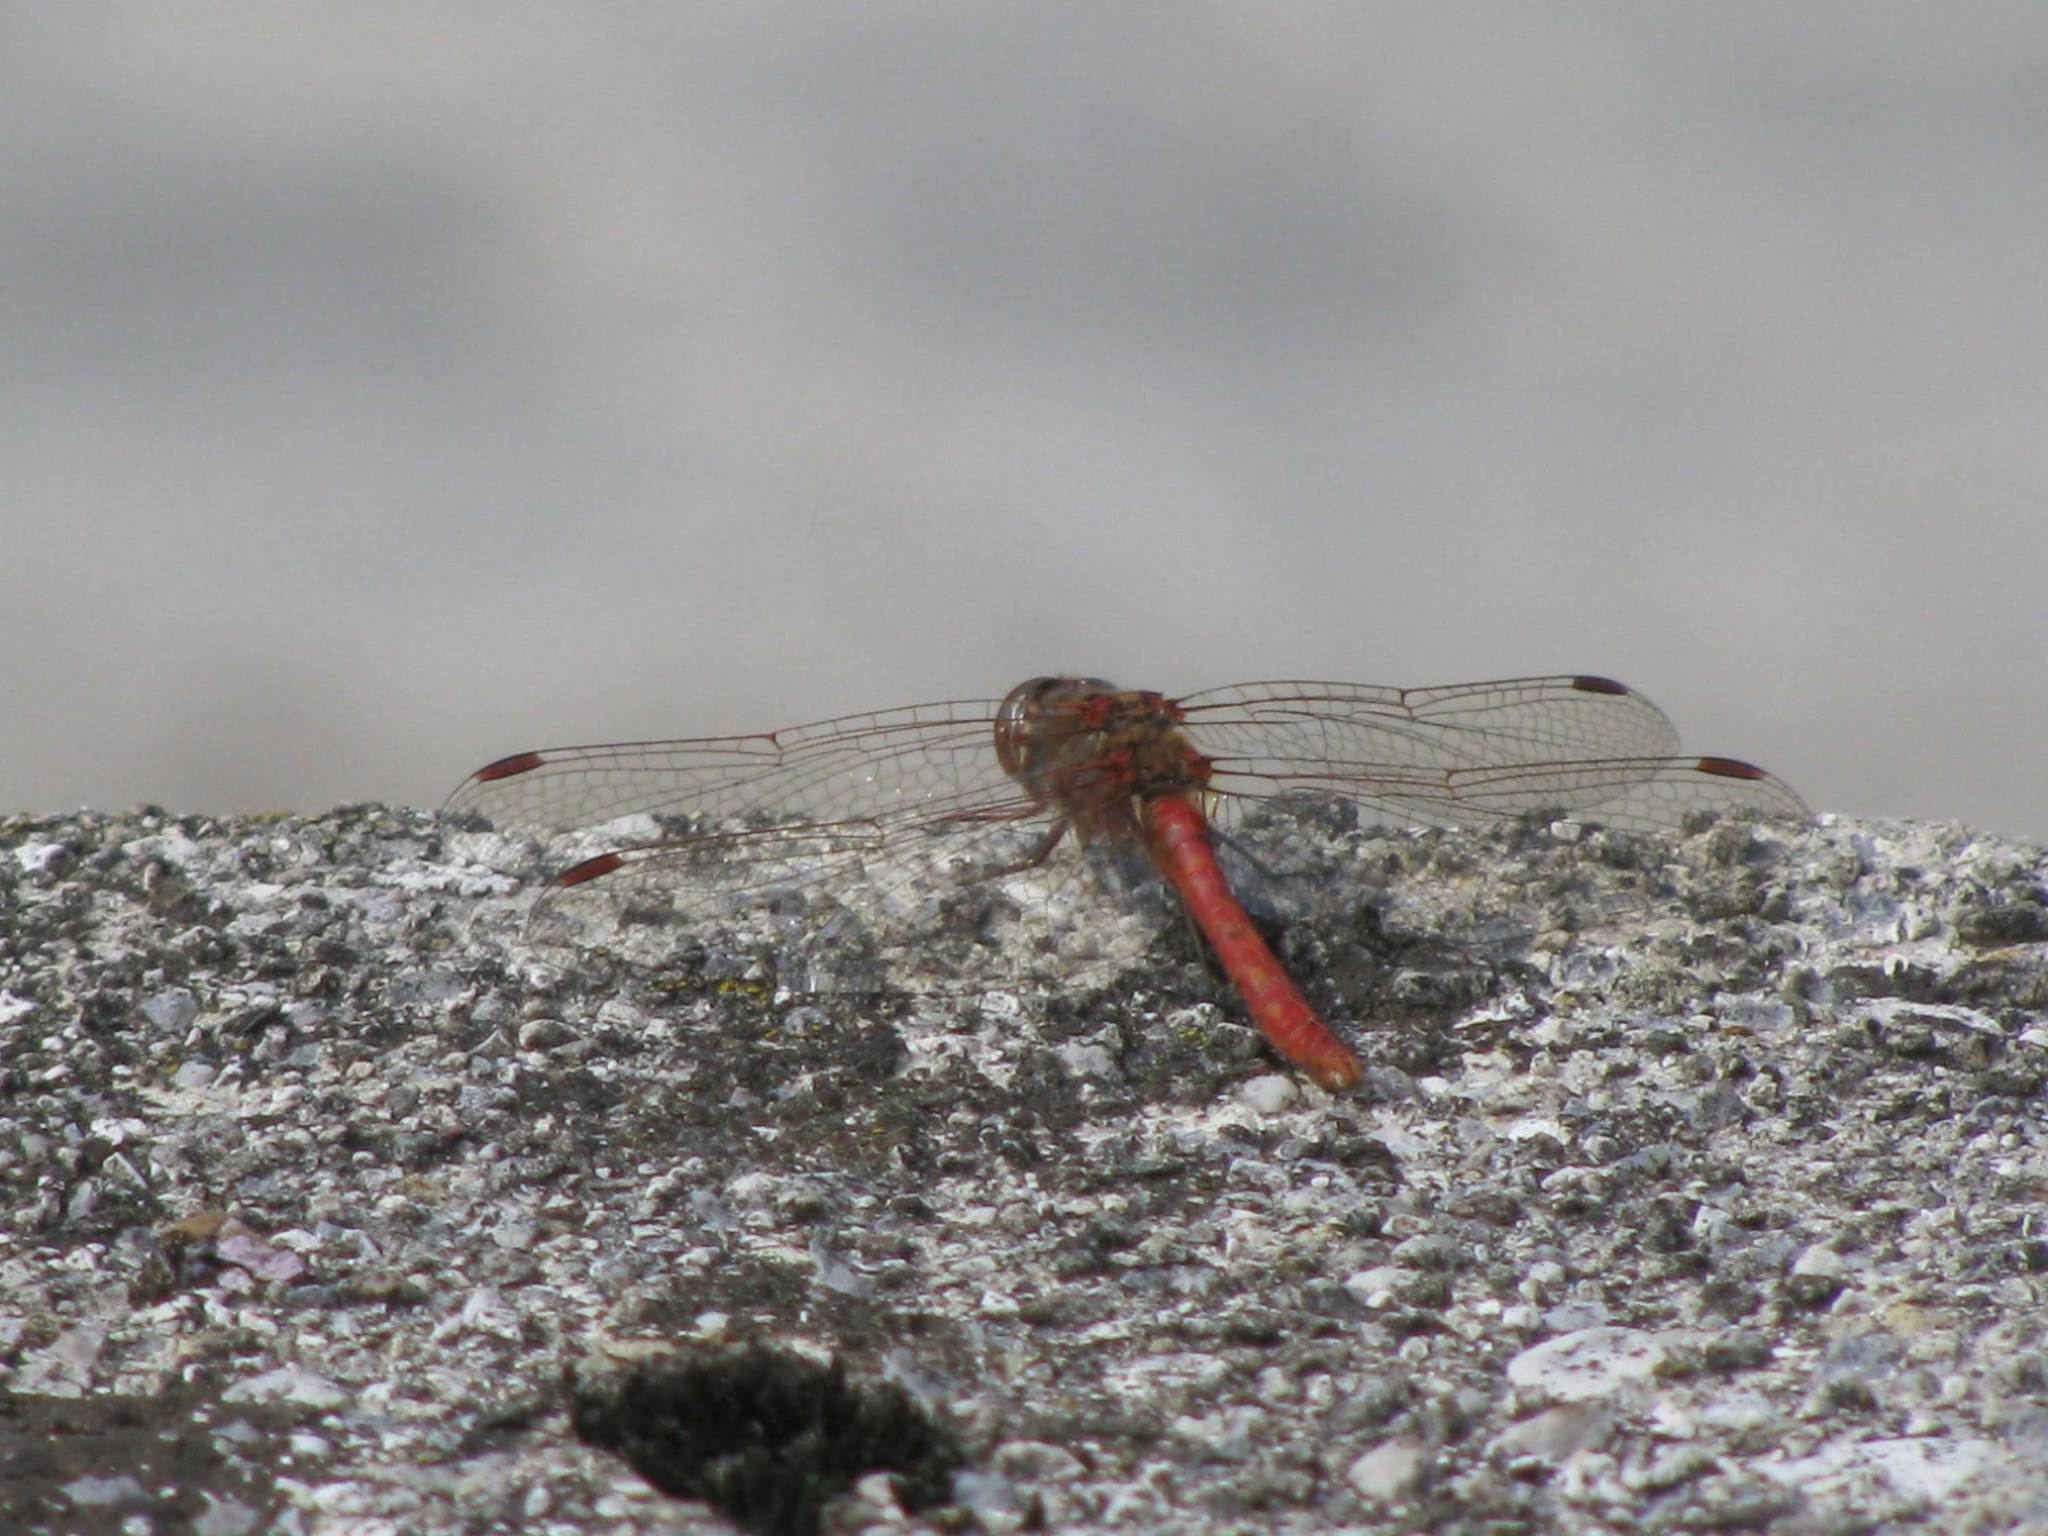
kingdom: Animalia
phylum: Arthropoda
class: Insecta
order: Odonata
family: Libellulidae
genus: Sympetrum
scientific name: Sympetrum vulgatum
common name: Vagrant darter
